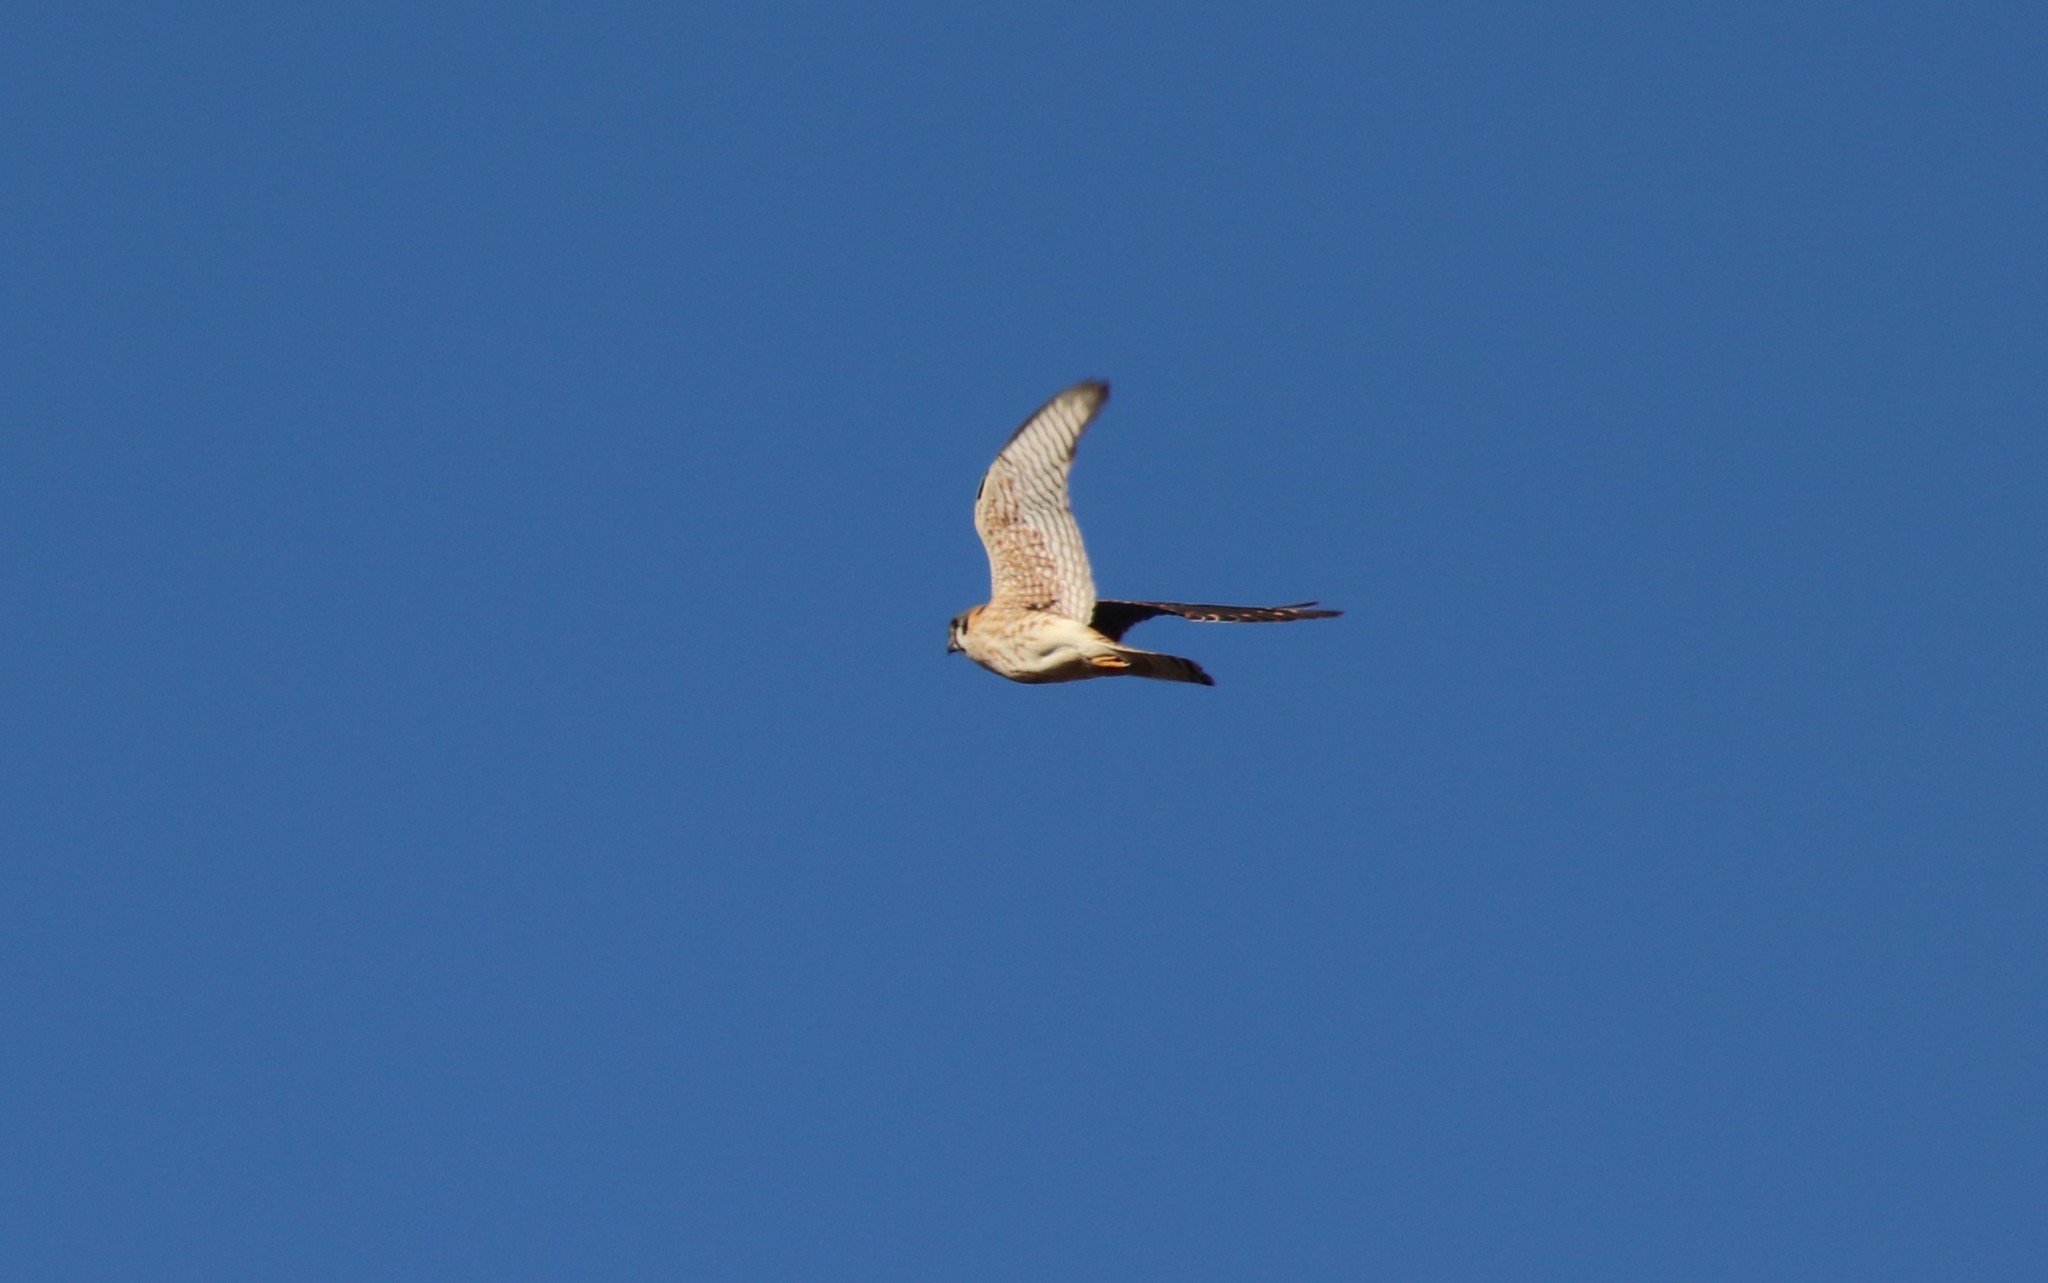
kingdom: Animalia
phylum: Chordata
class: Aves
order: Falconiformes
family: Falconidae
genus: Falco
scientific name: Falco sparverius
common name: American kestrel
